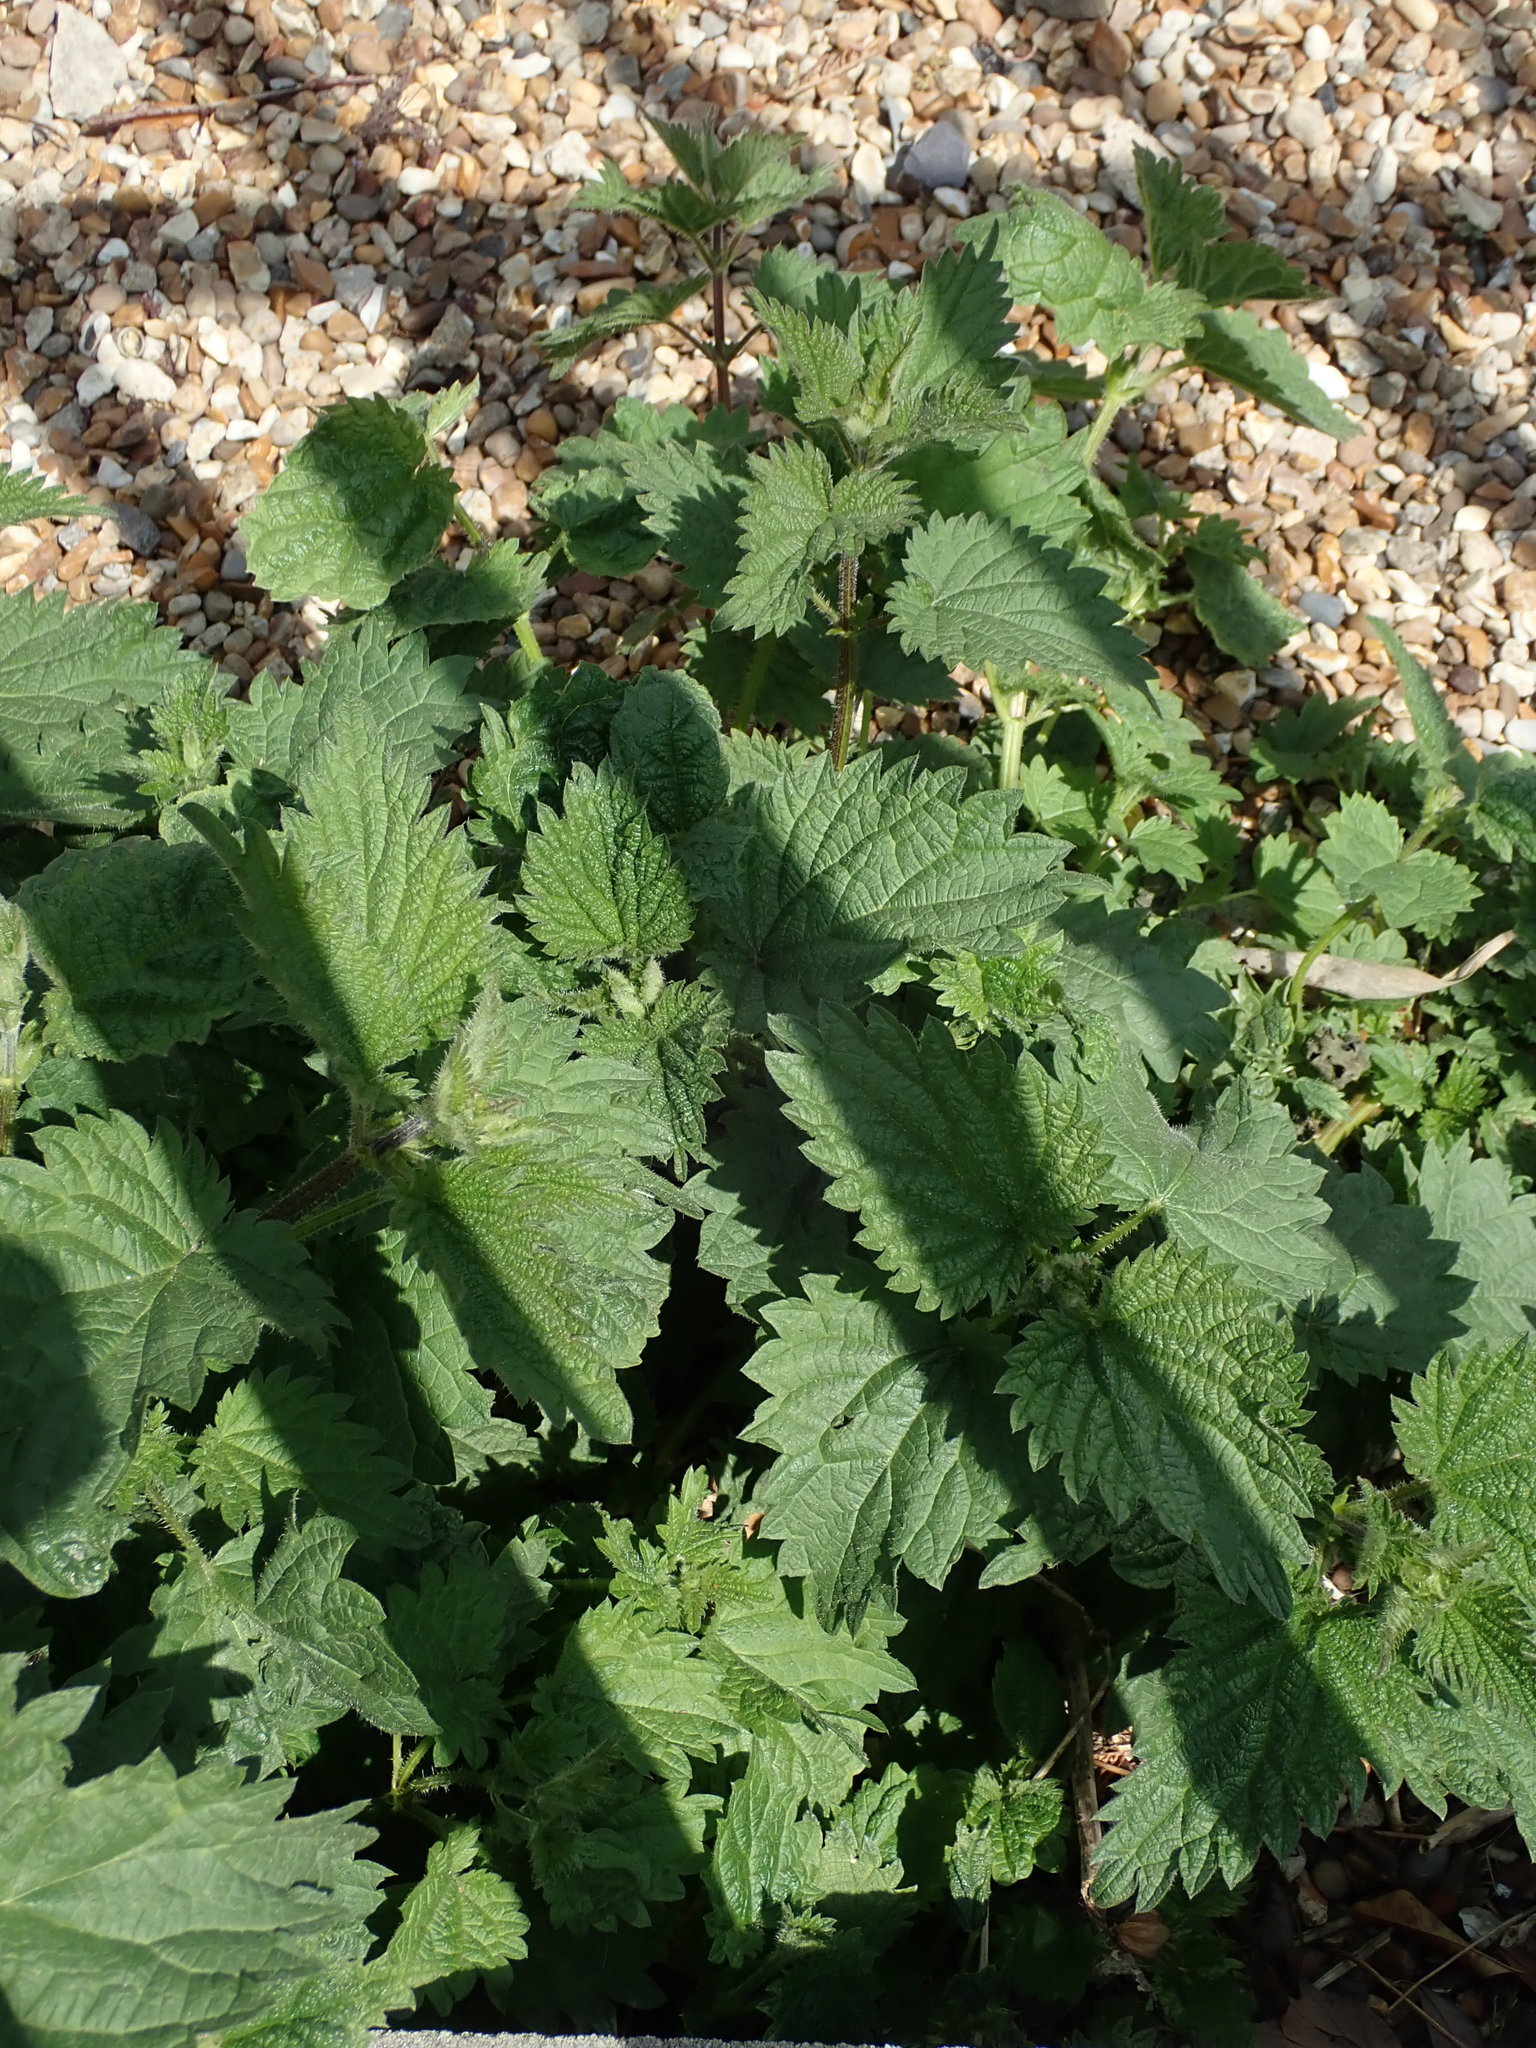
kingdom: Plantae
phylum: Tracheophyta
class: Magnoliopsida
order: Rosales
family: Urticaceae
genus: Urtica
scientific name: Urtica dioica
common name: Common nettle
